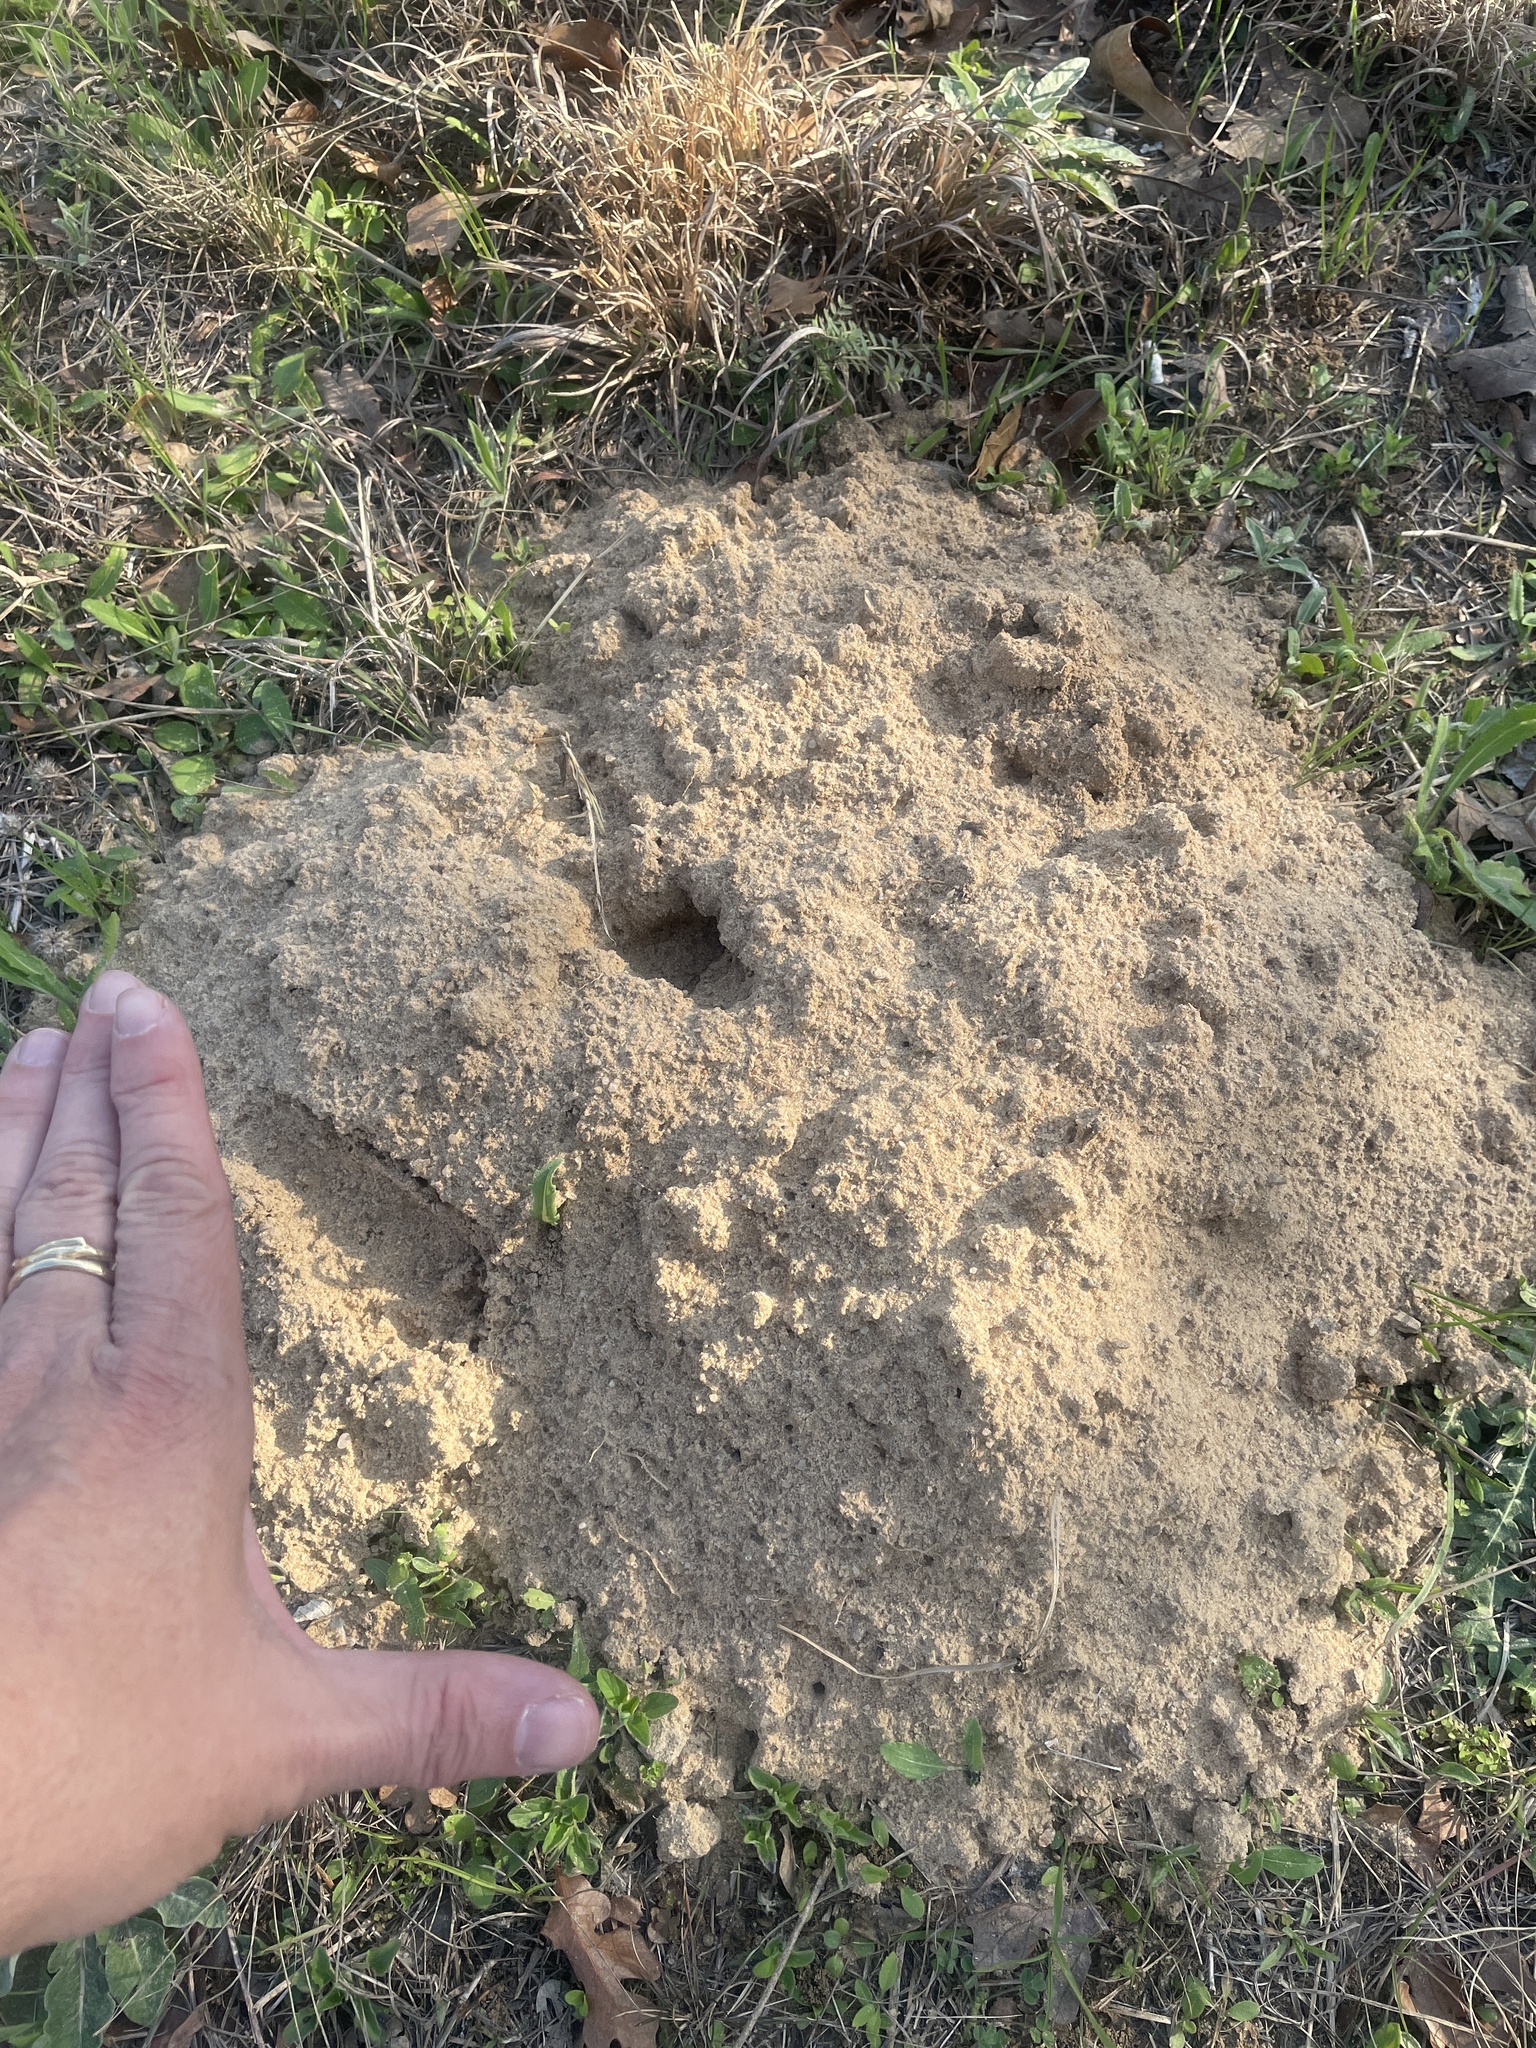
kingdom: Animalia
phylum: Chordata
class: Mammalia
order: Rodentia
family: Geomyidae
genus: Geomys
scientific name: Geomys attwateri
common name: Attwater's pocket gopher
